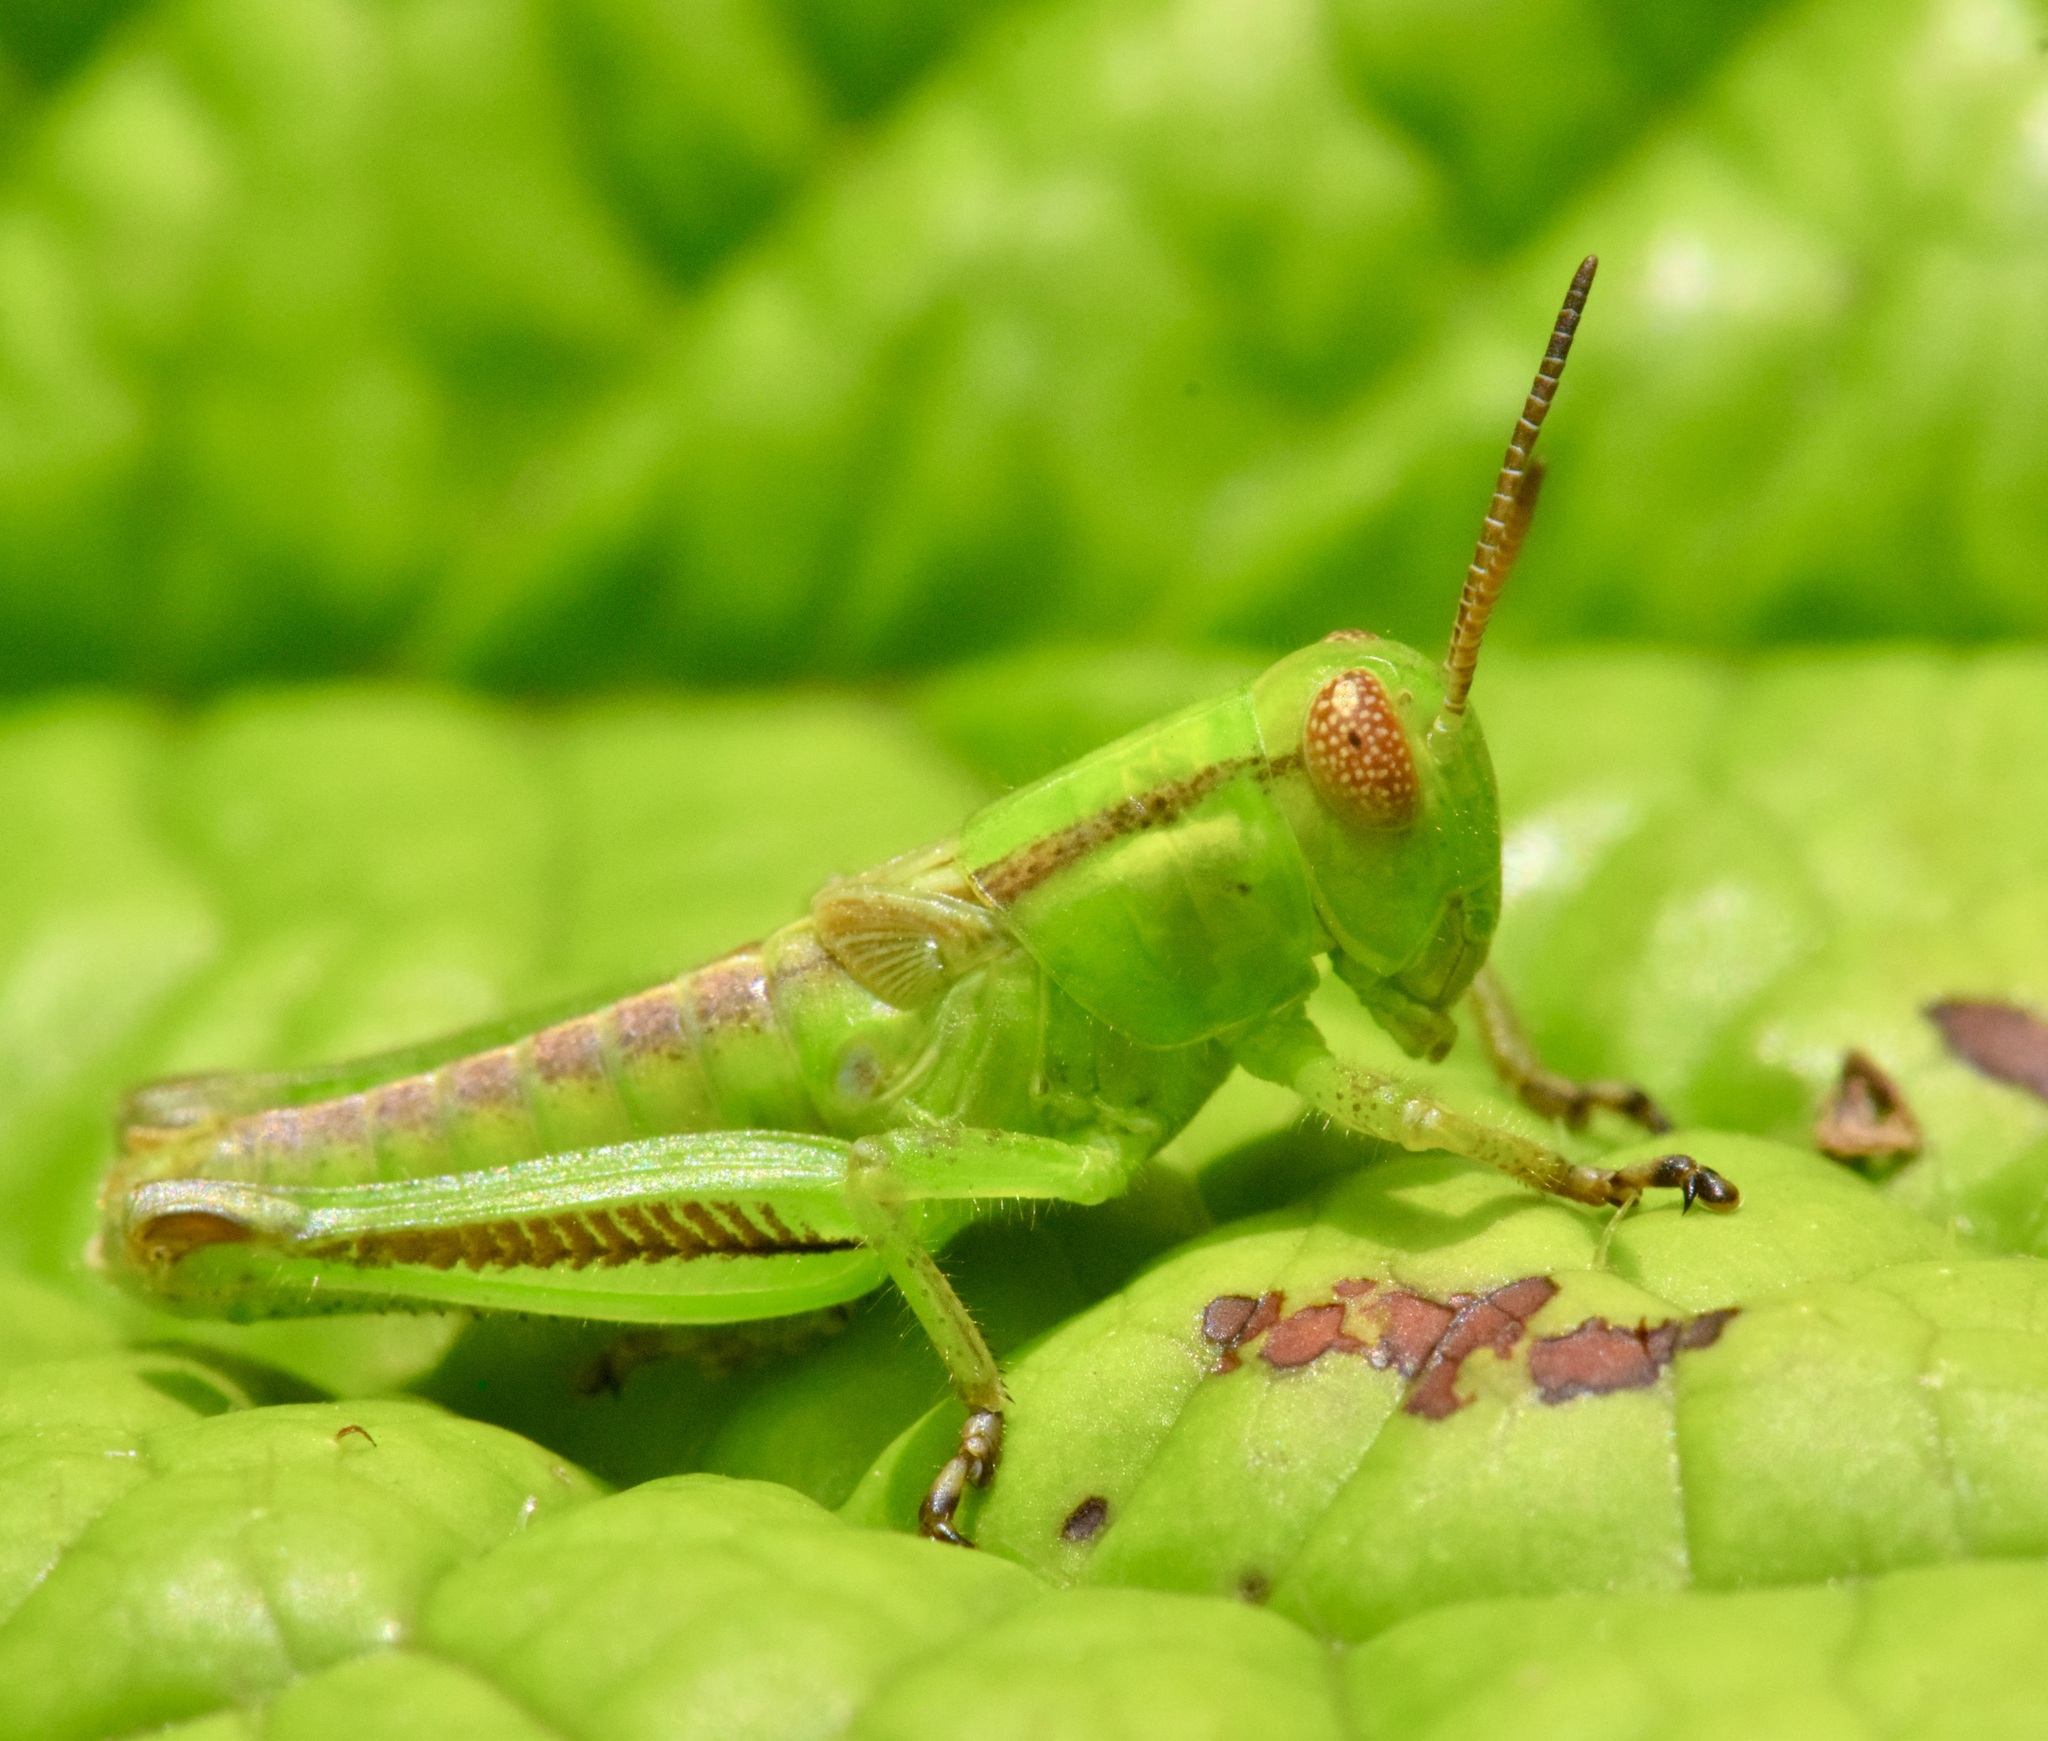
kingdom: Animalia
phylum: Arthropoda
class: Insecta
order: Orthoptera
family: Acrididae
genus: Melanoplus
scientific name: Melanoplus bivittatus
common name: Two-striped grasshopper
